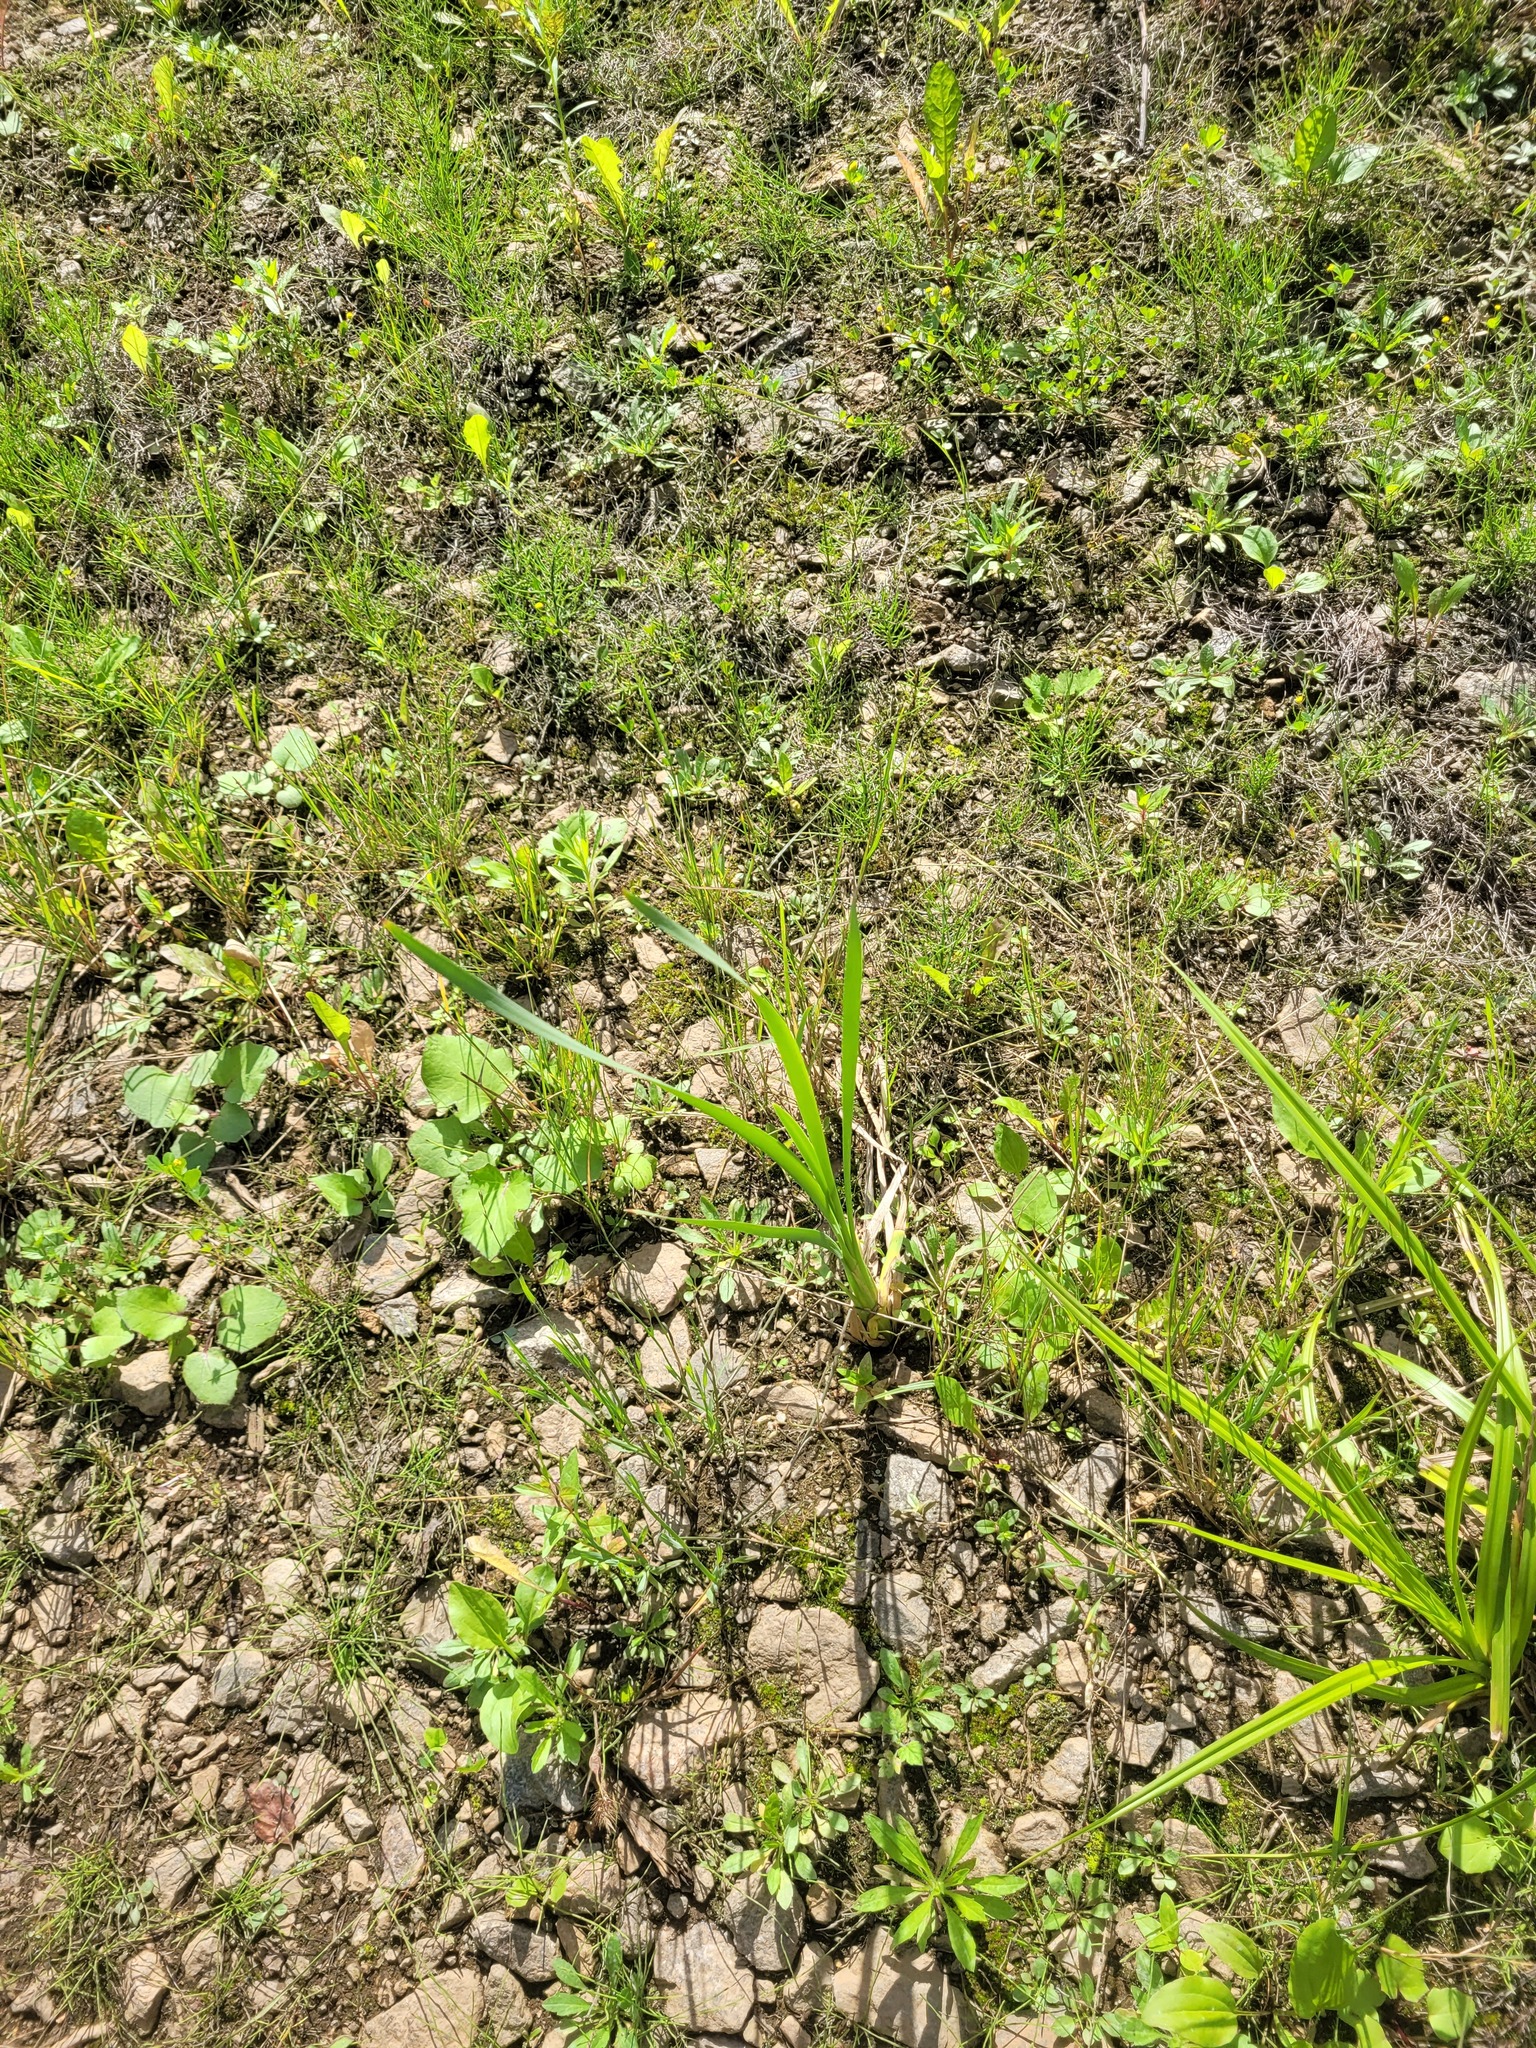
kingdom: Plantae
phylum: Tracheophyta
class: Liliopsida
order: Poales
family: Typhaceae
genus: Typha
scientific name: Typha latifolia
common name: Broadleaf cattail
